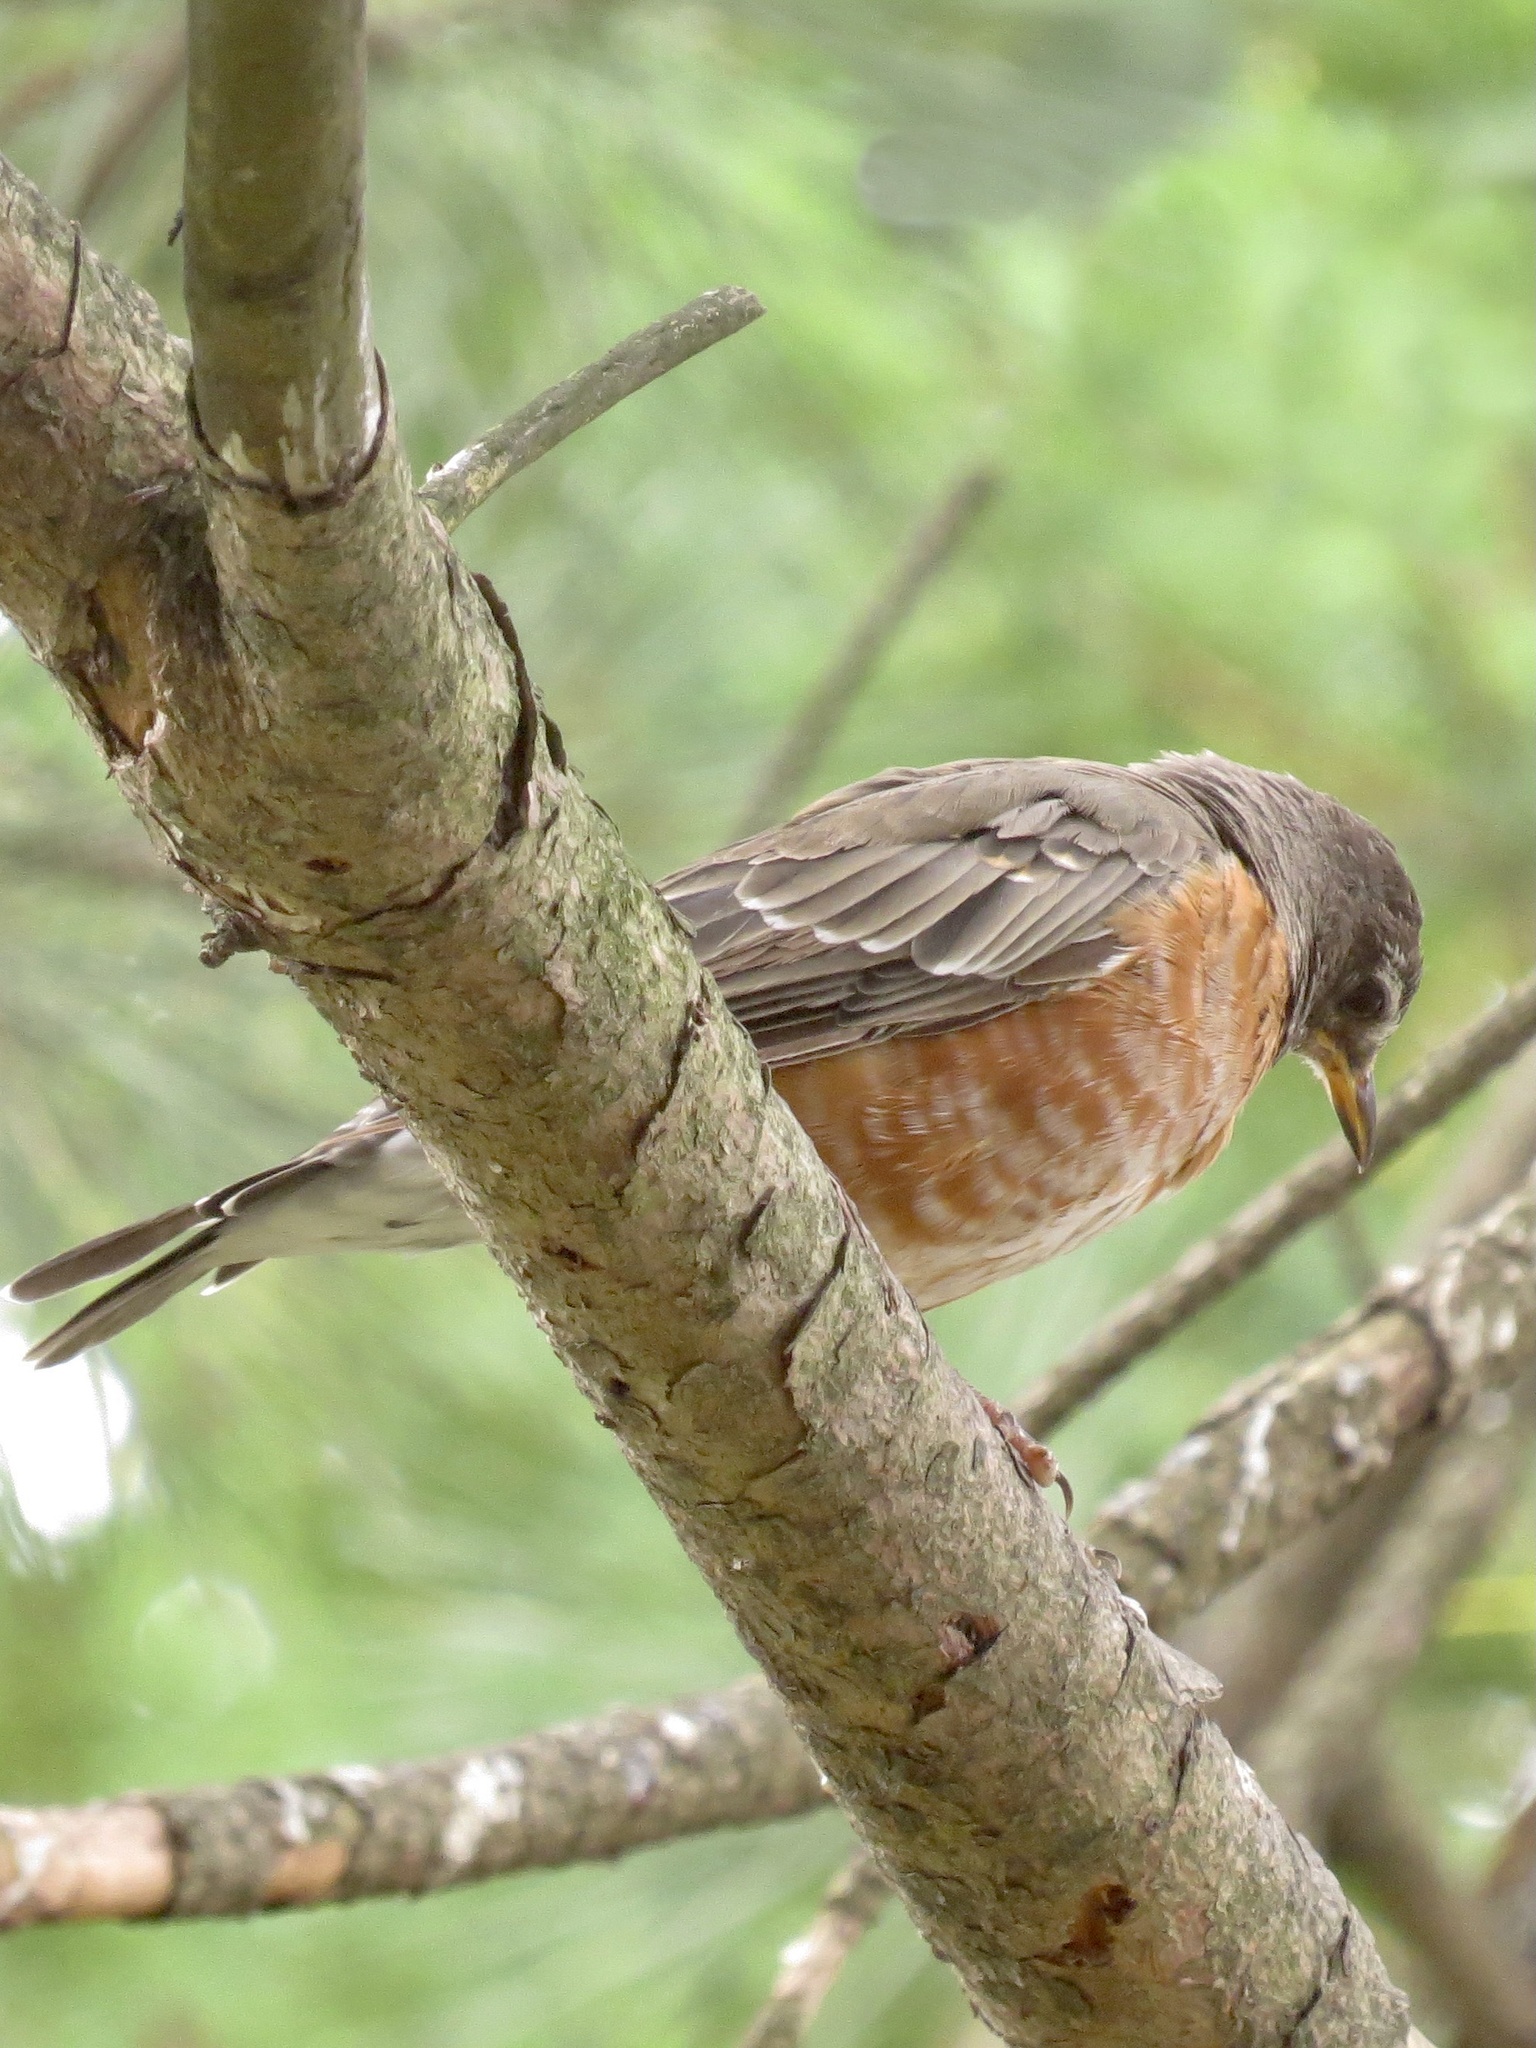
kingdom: Animalia
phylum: Chordata
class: Aves
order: Passeriformes
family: Turdidae
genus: Turdus
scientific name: Turdus migratorius
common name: American robin
